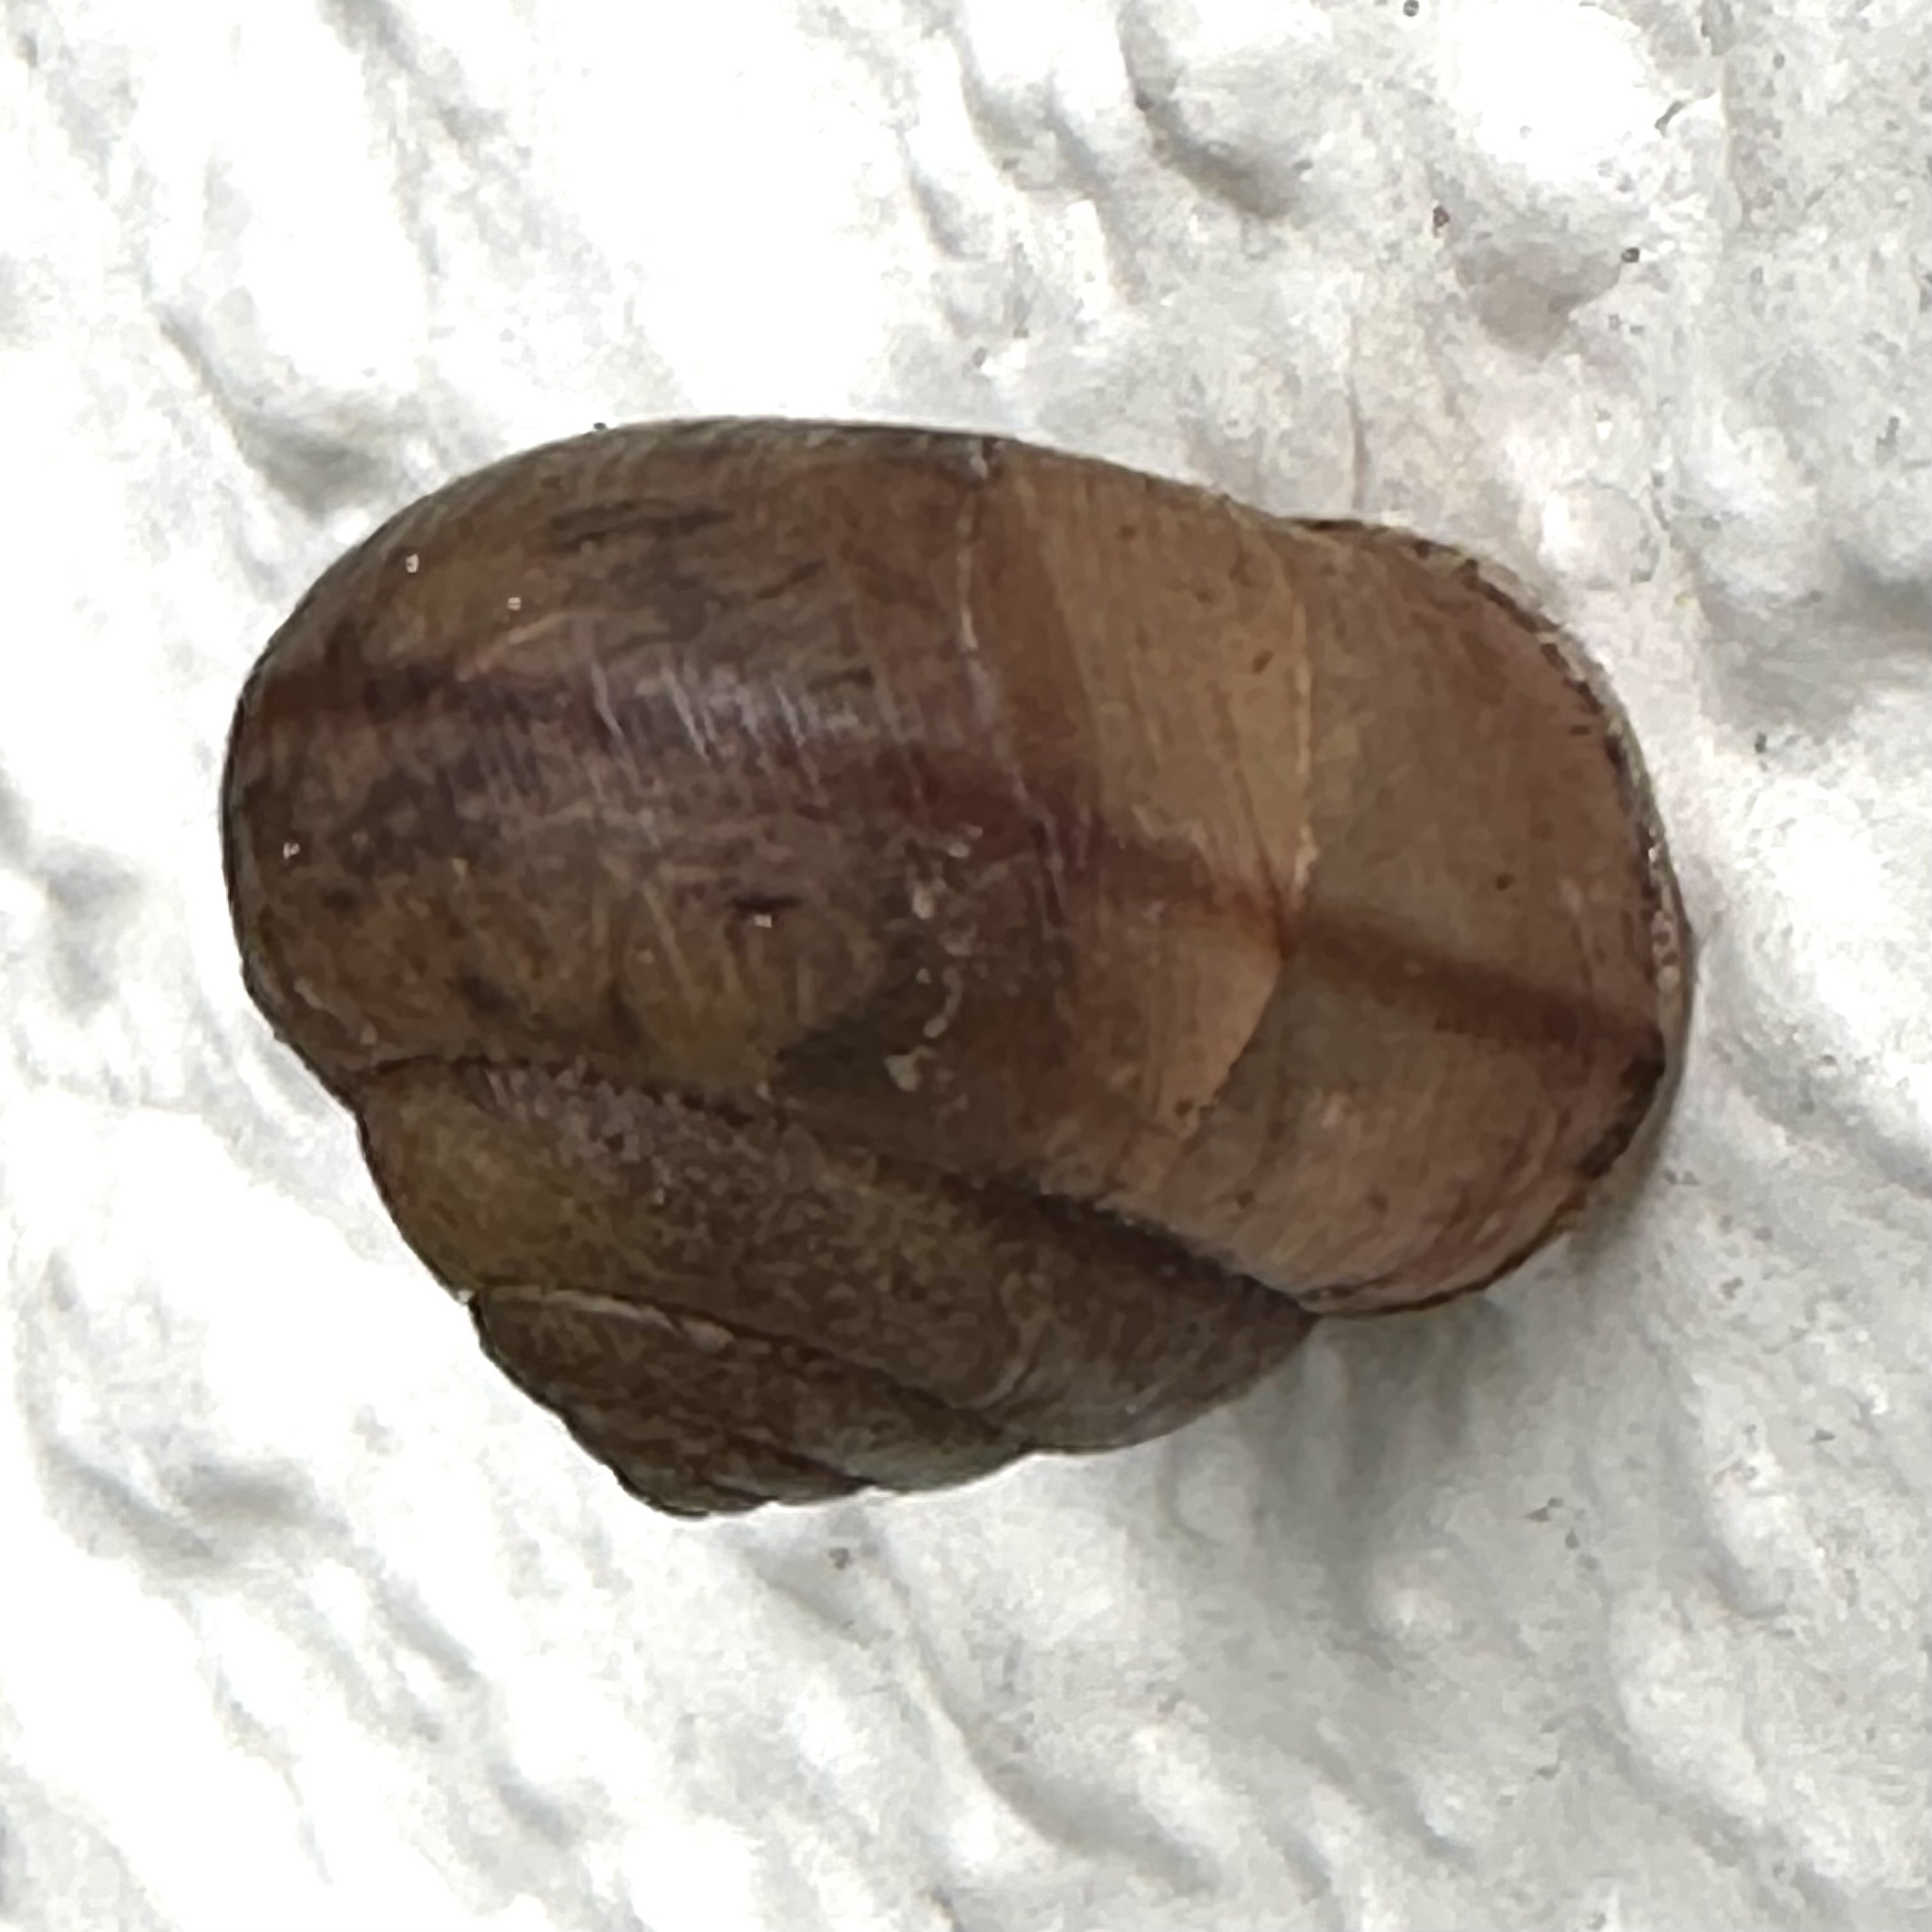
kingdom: Animalia
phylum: Mollusca
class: Gastropoda
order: Stylommatophora
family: Camaenidae
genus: Bradybaena
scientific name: Bradybaena similaris
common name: Asian trampsnail
